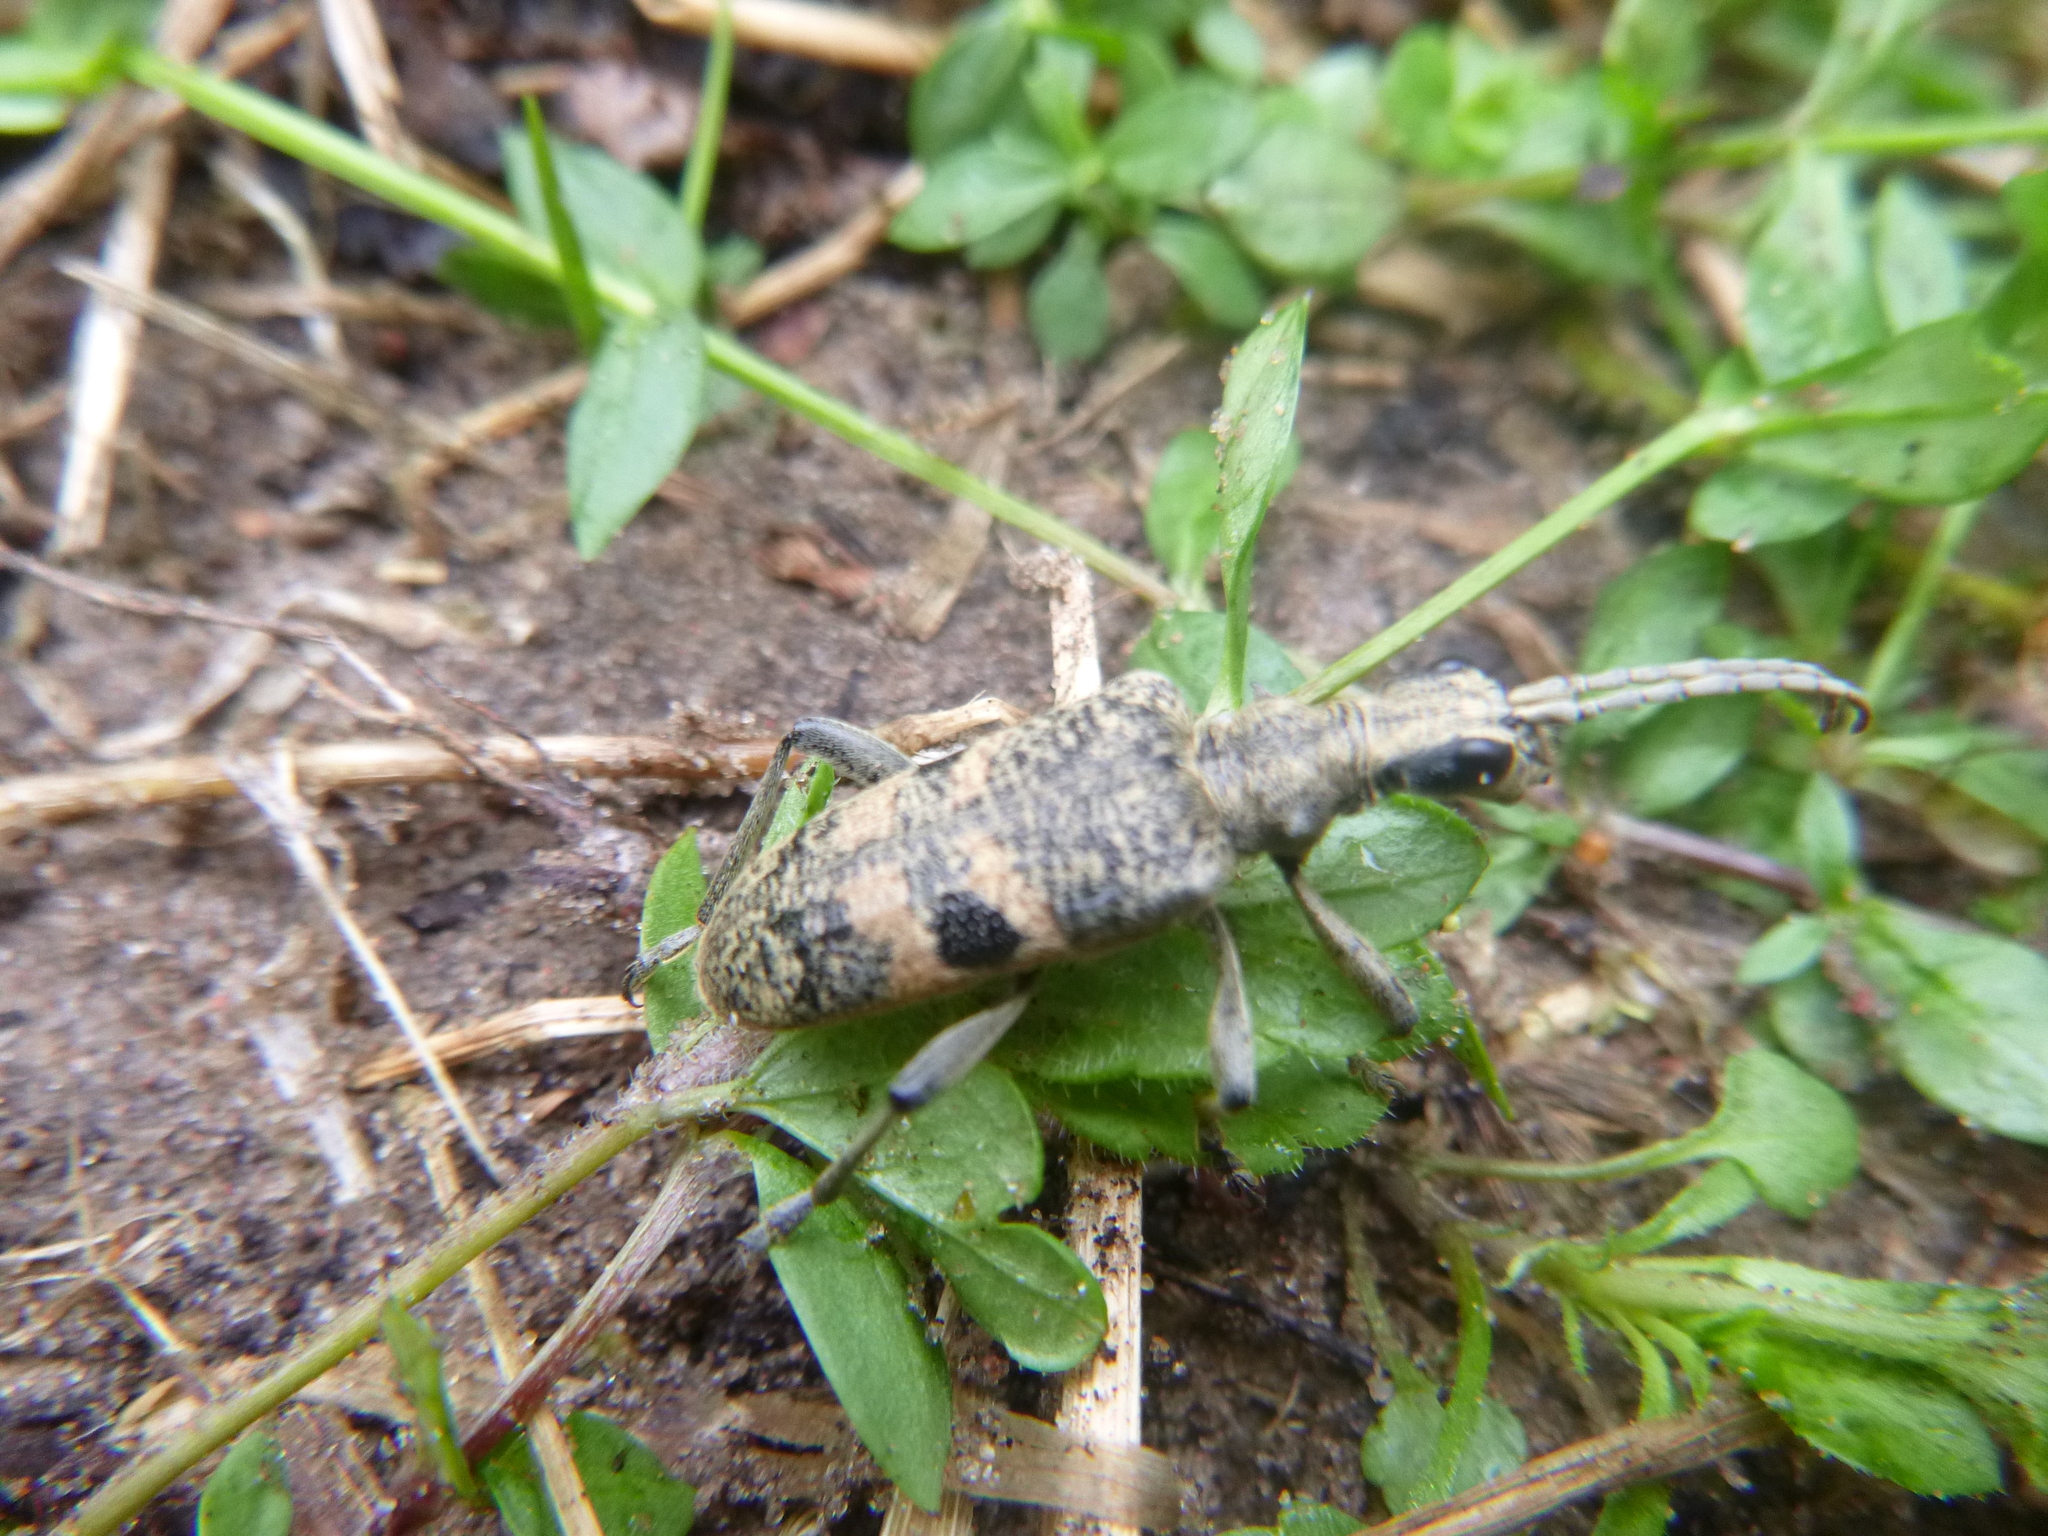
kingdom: Animalia
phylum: Arthropoda
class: Insecta
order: Coleoptera
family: Cerambycidae
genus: Rhagium
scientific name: Rhagium mordax
